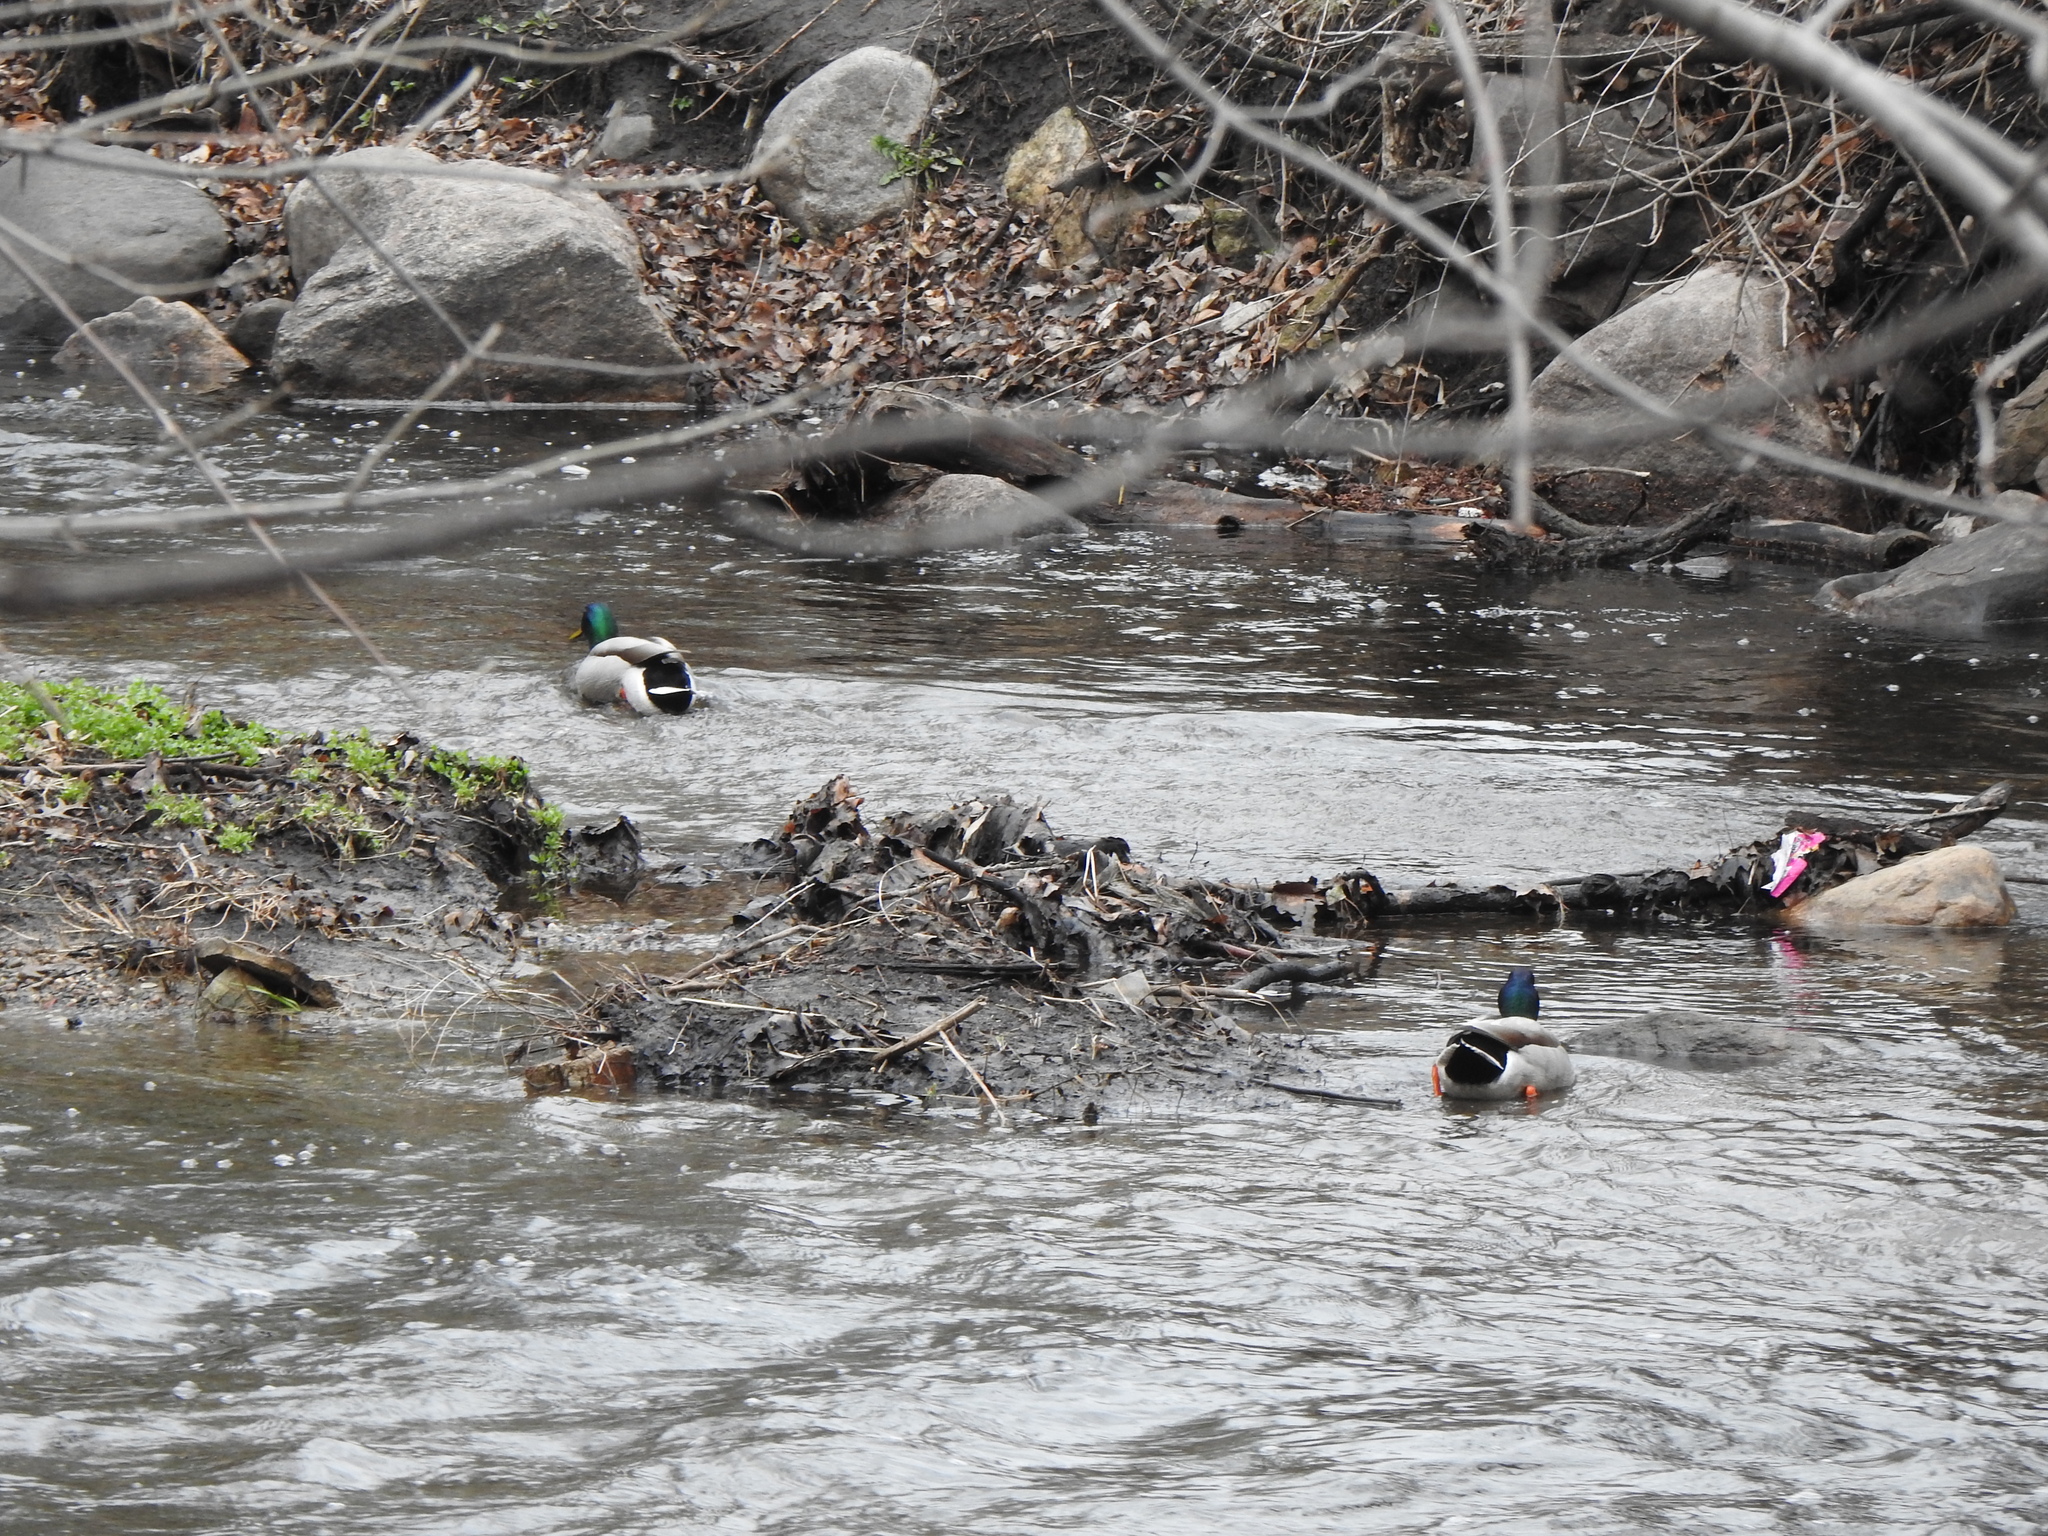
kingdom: Animalia
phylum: Chordata
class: Aves
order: Anseriformes
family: Anatidae
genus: Anas
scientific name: Anas platyrhynchos
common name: Mallard
